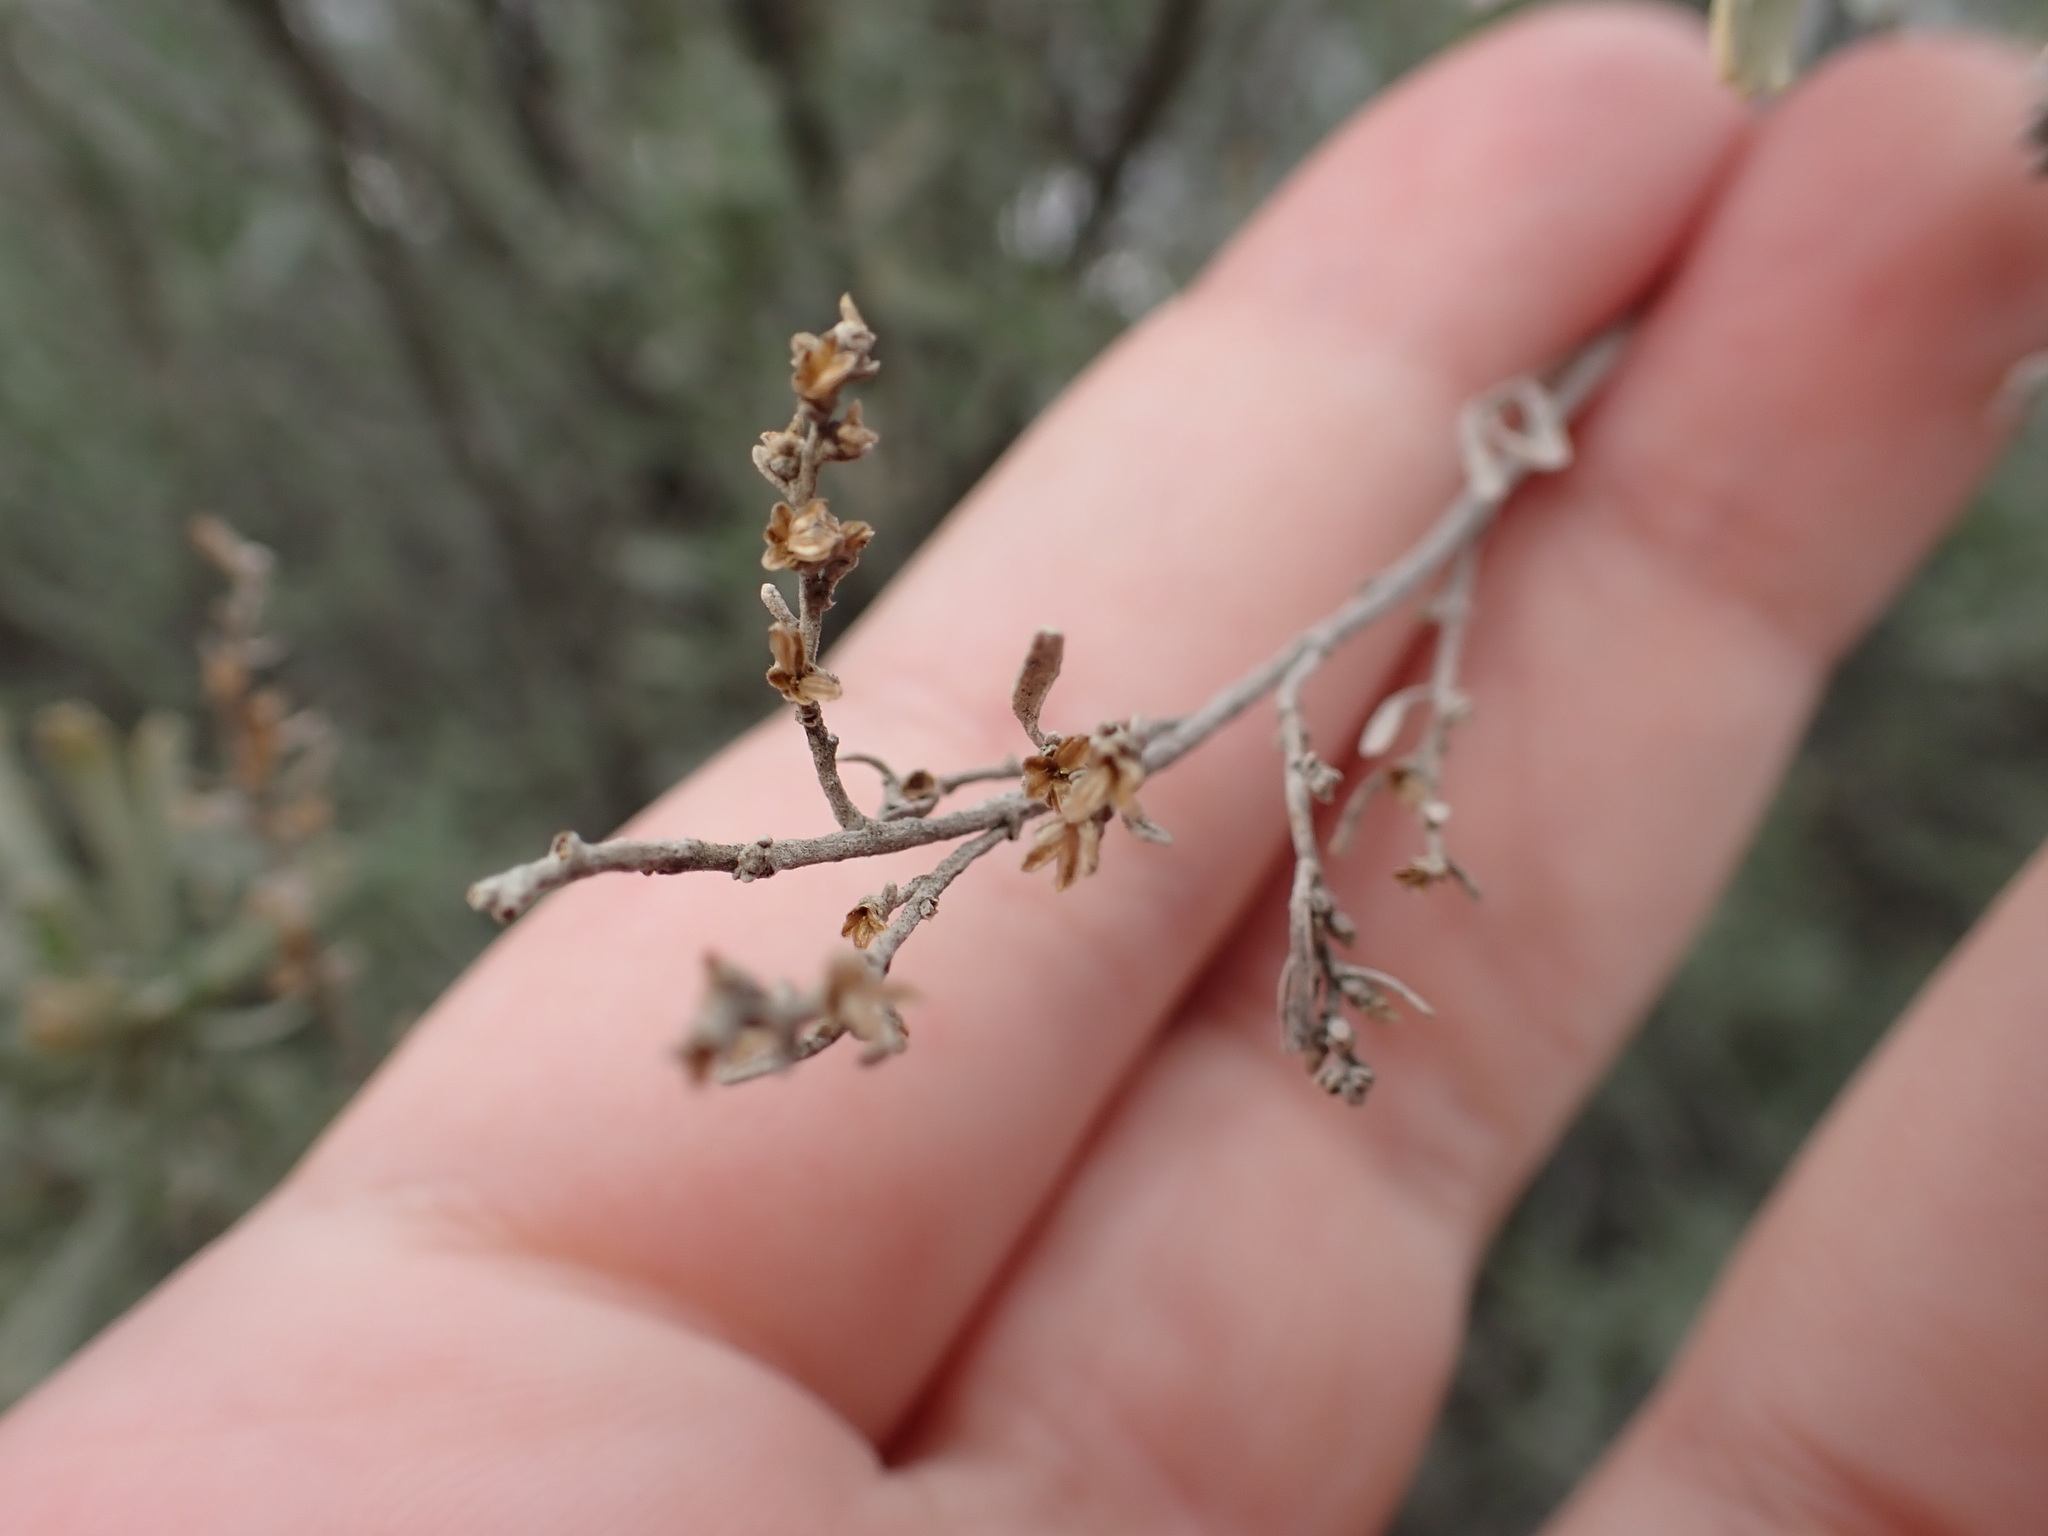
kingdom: Plantae
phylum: Tracheophyta
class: Magnoliopsida
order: Asterales
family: Asteraceae
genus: Artemisia
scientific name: Artemisia tridentata
